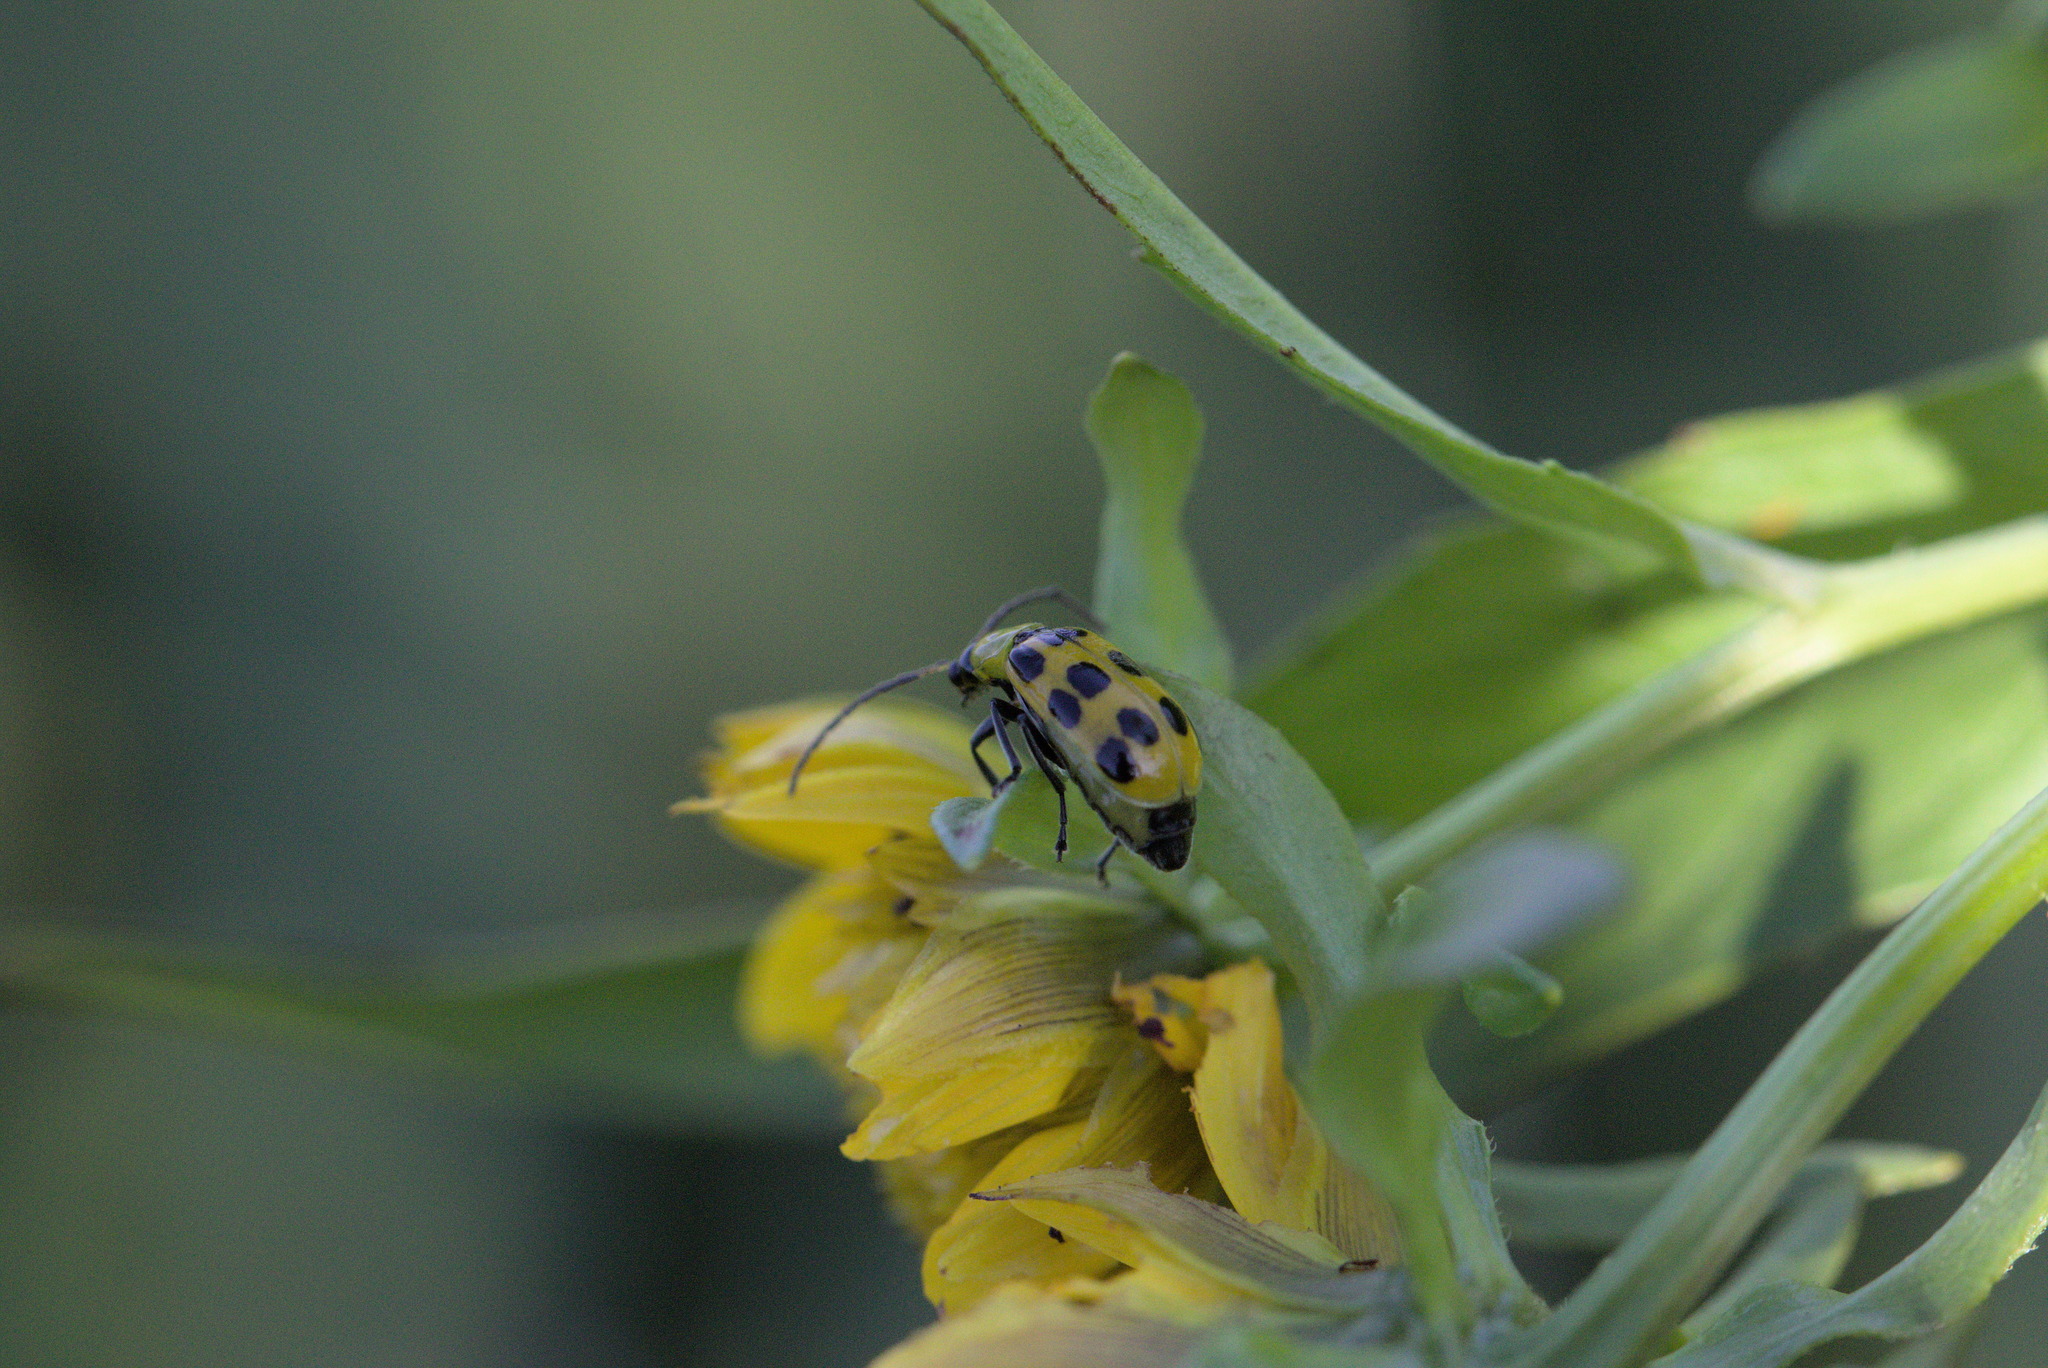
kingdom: Animalia
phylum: Arthropoda
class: Insecta
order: Coleoptera
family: Chrysomelidae
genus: Diabrotica
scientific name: Diabrotica undecimpunctata
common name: Spotted cucumber beetle
